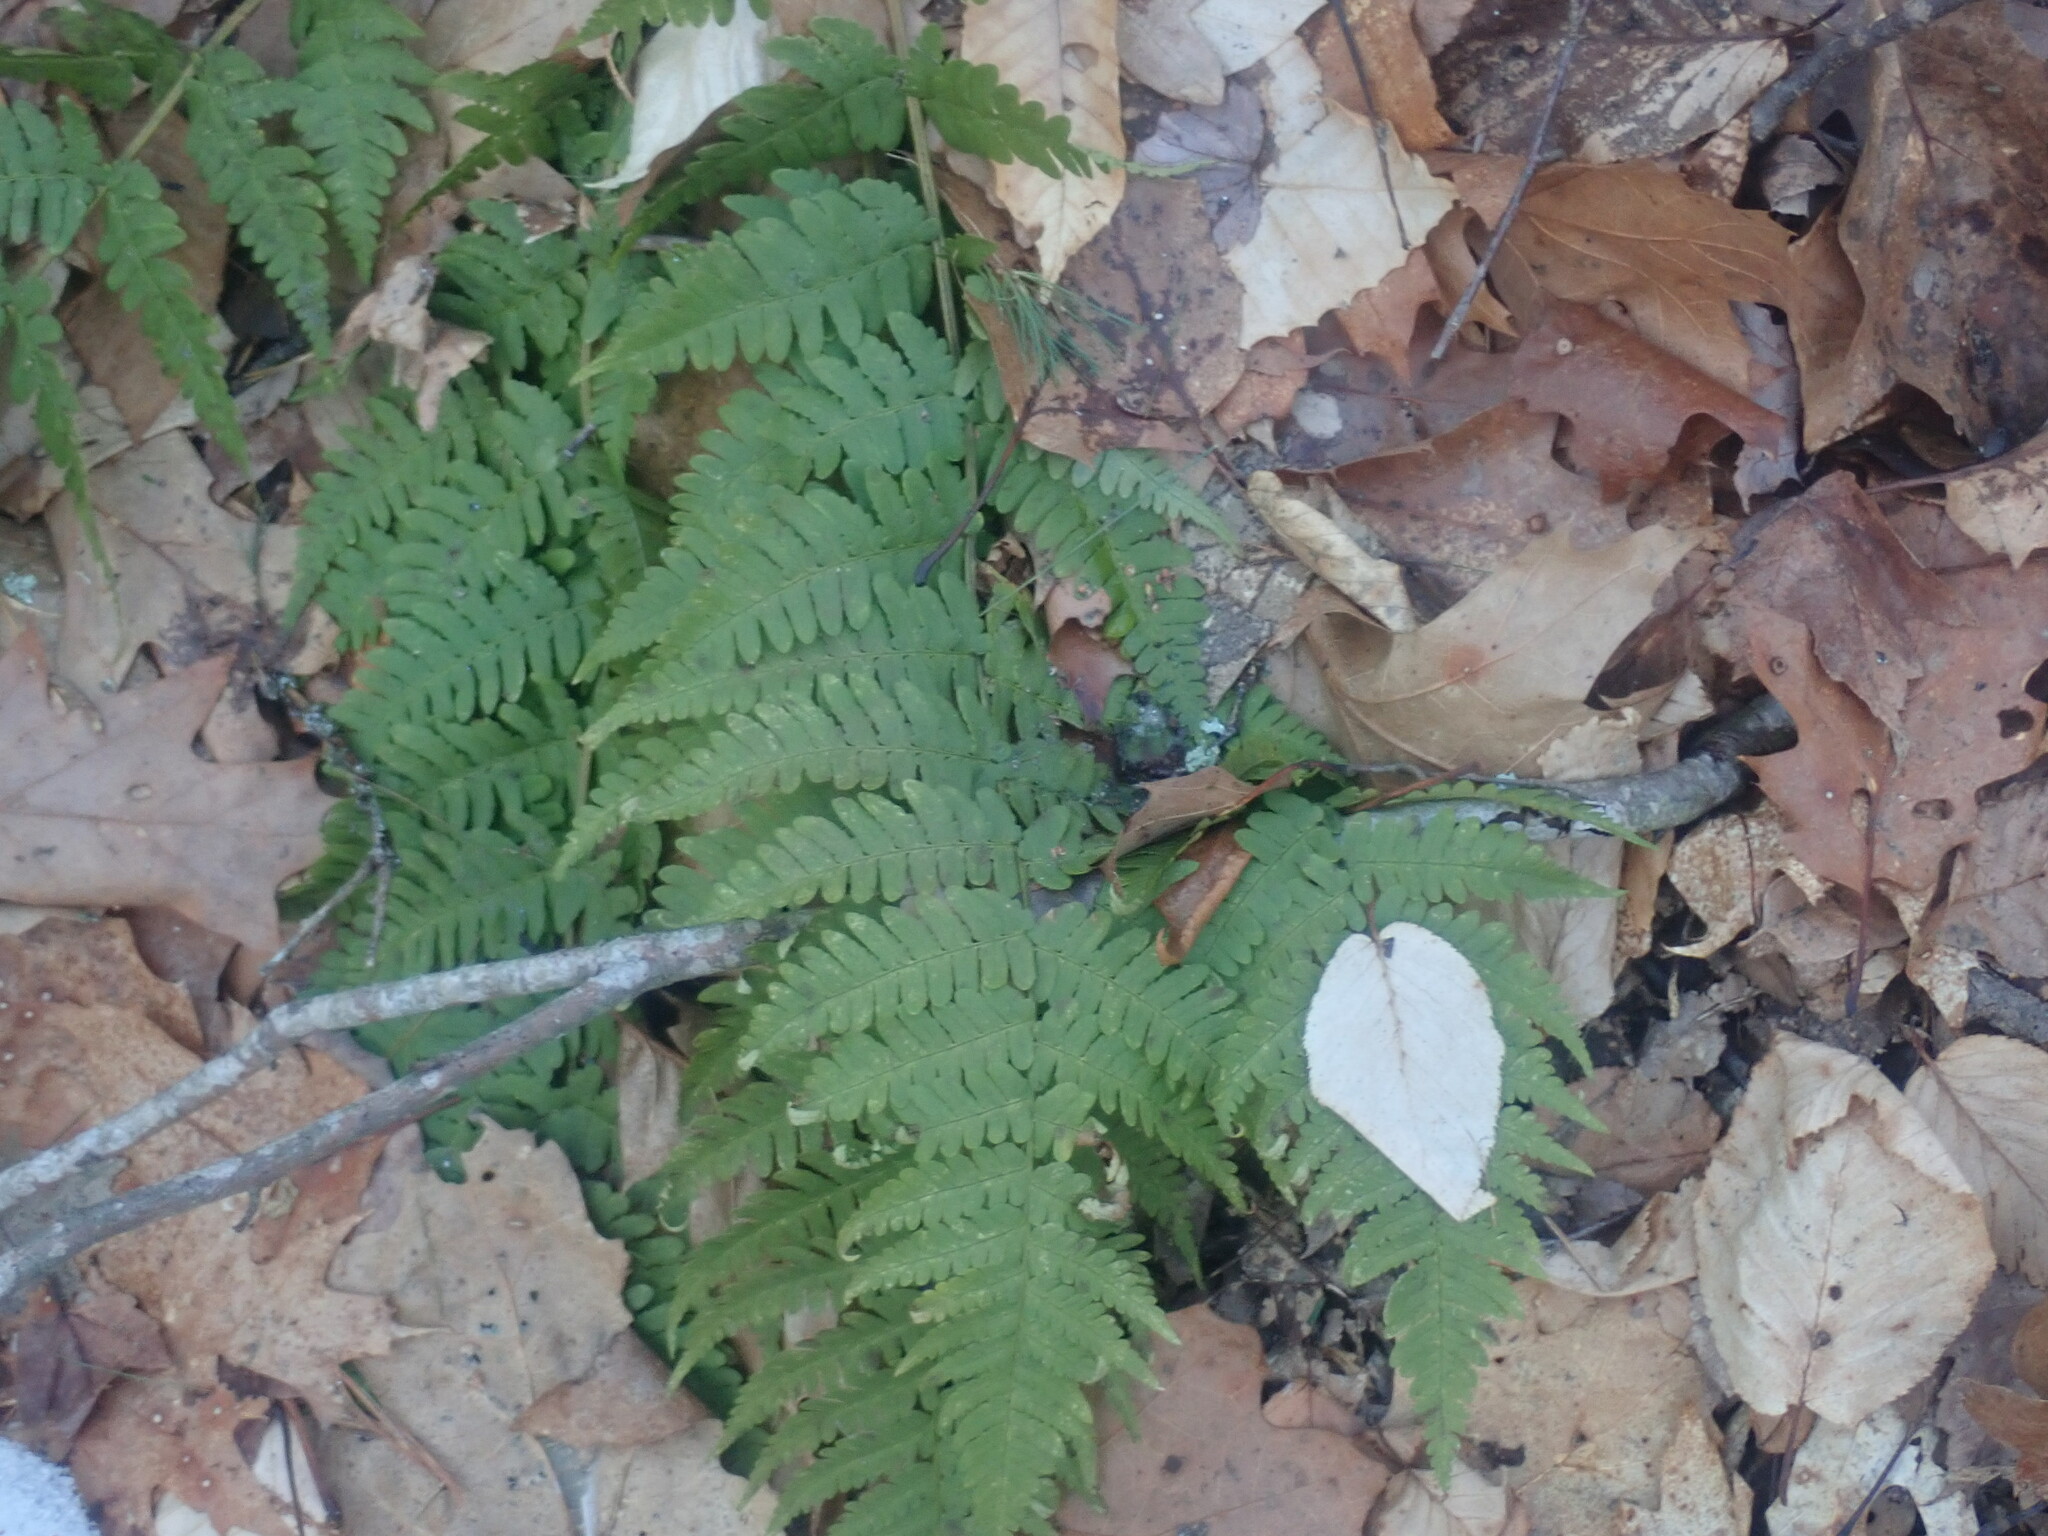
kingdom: Plantae
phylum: Tracheophyta
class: Polypodiopsida
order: Polypodiales
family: Dryopteridaceae
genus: Dryopteris
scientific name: Dryopteris marginalis
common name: Marginal wood fern
